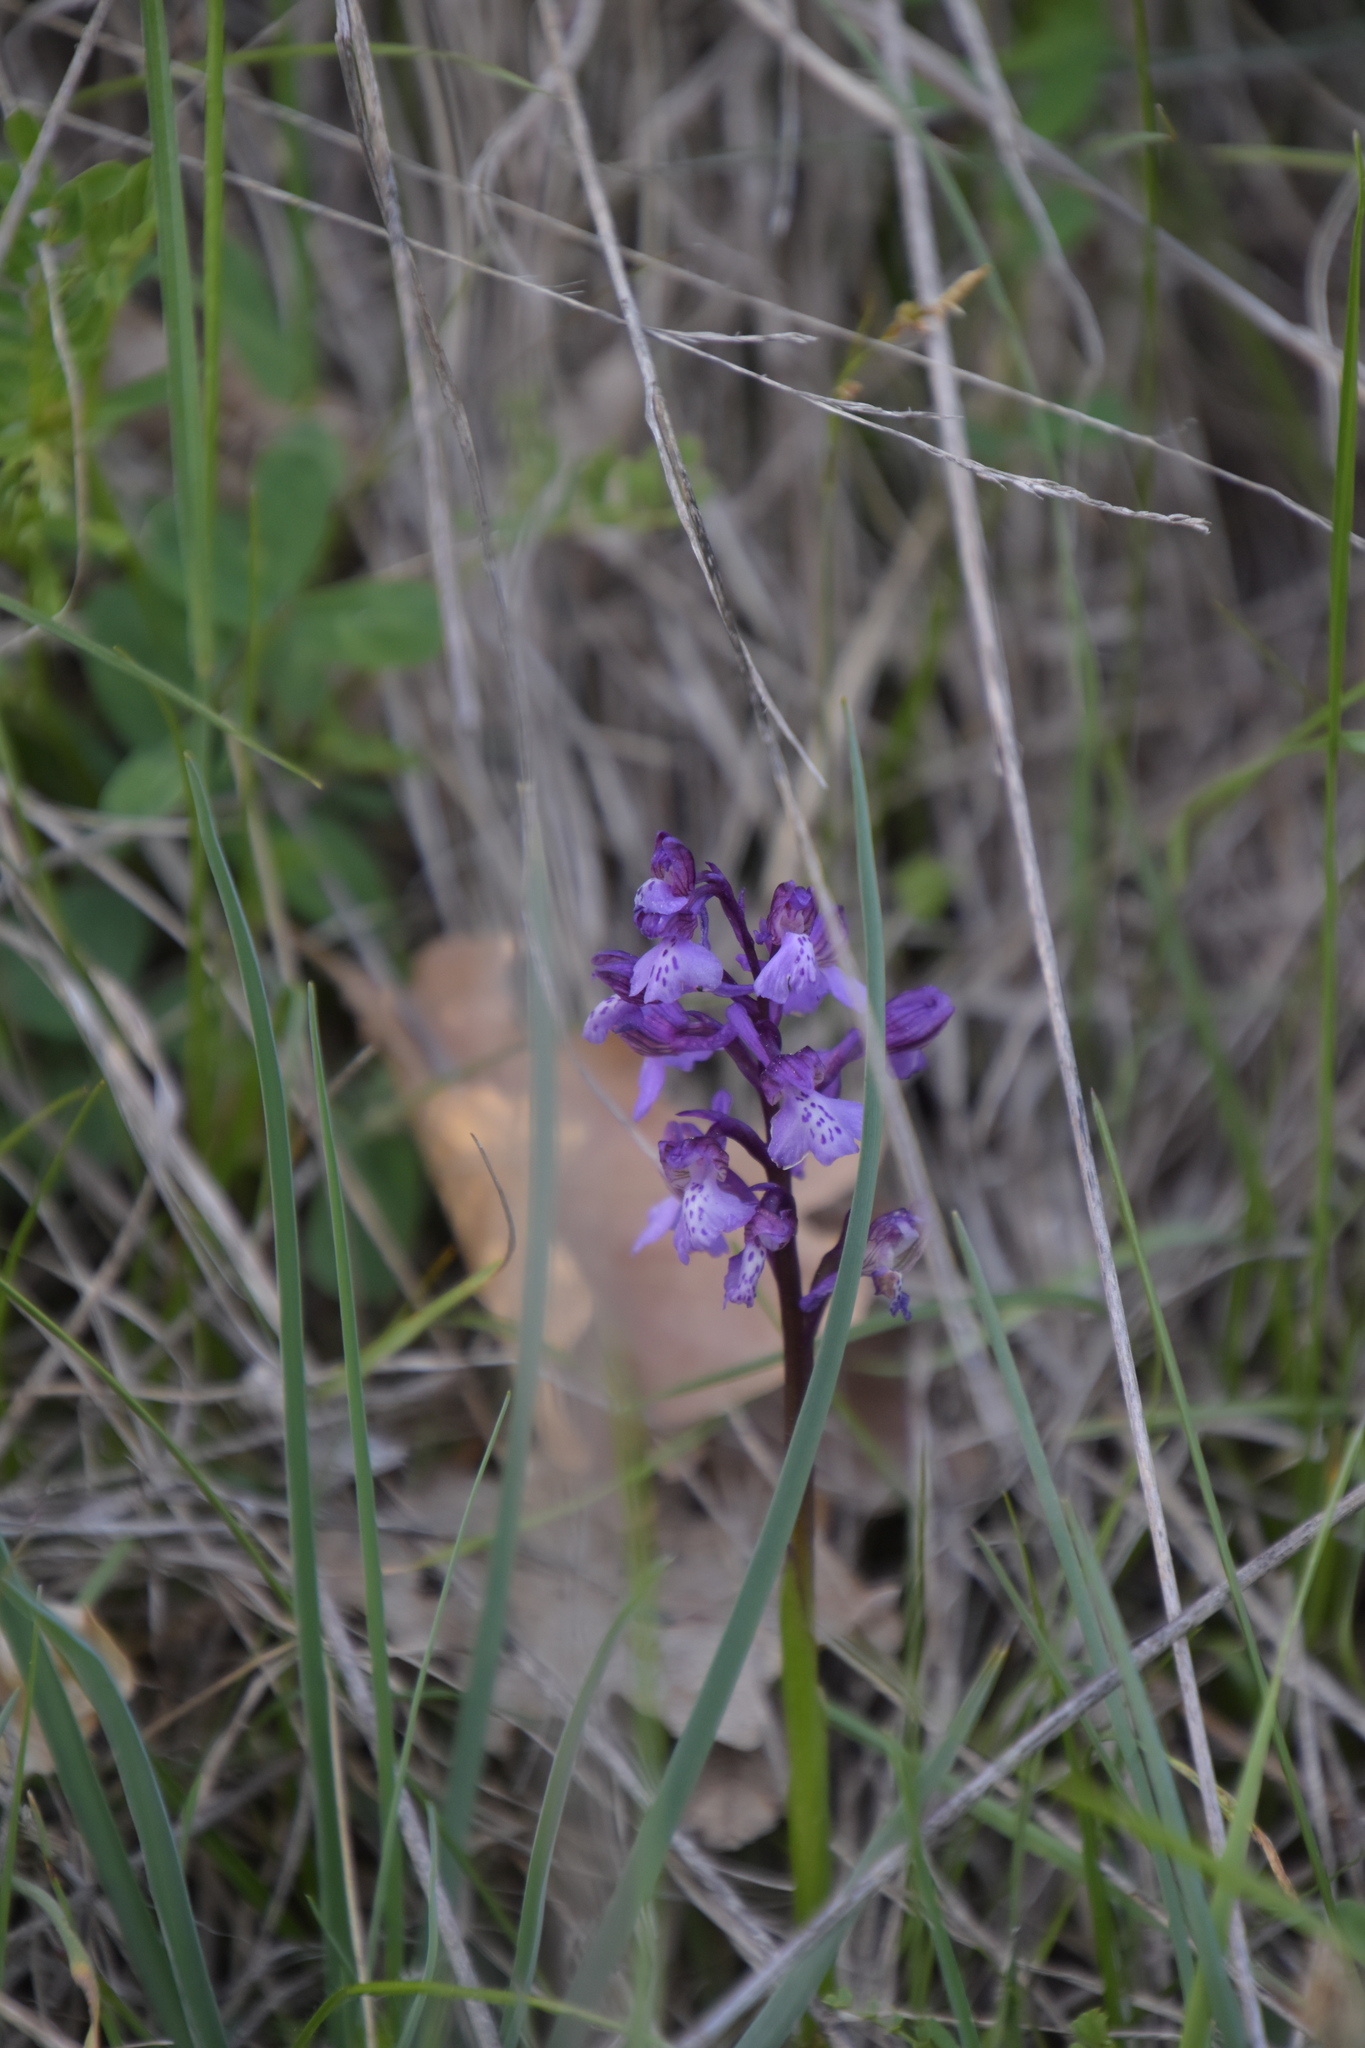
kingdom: Plantae
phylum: Tracheophyta
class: Liliopsida
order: Asparagales
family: Orchidaceae
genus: Anacamptis
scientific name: Anacamptis morio
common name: Green-winged orchid
